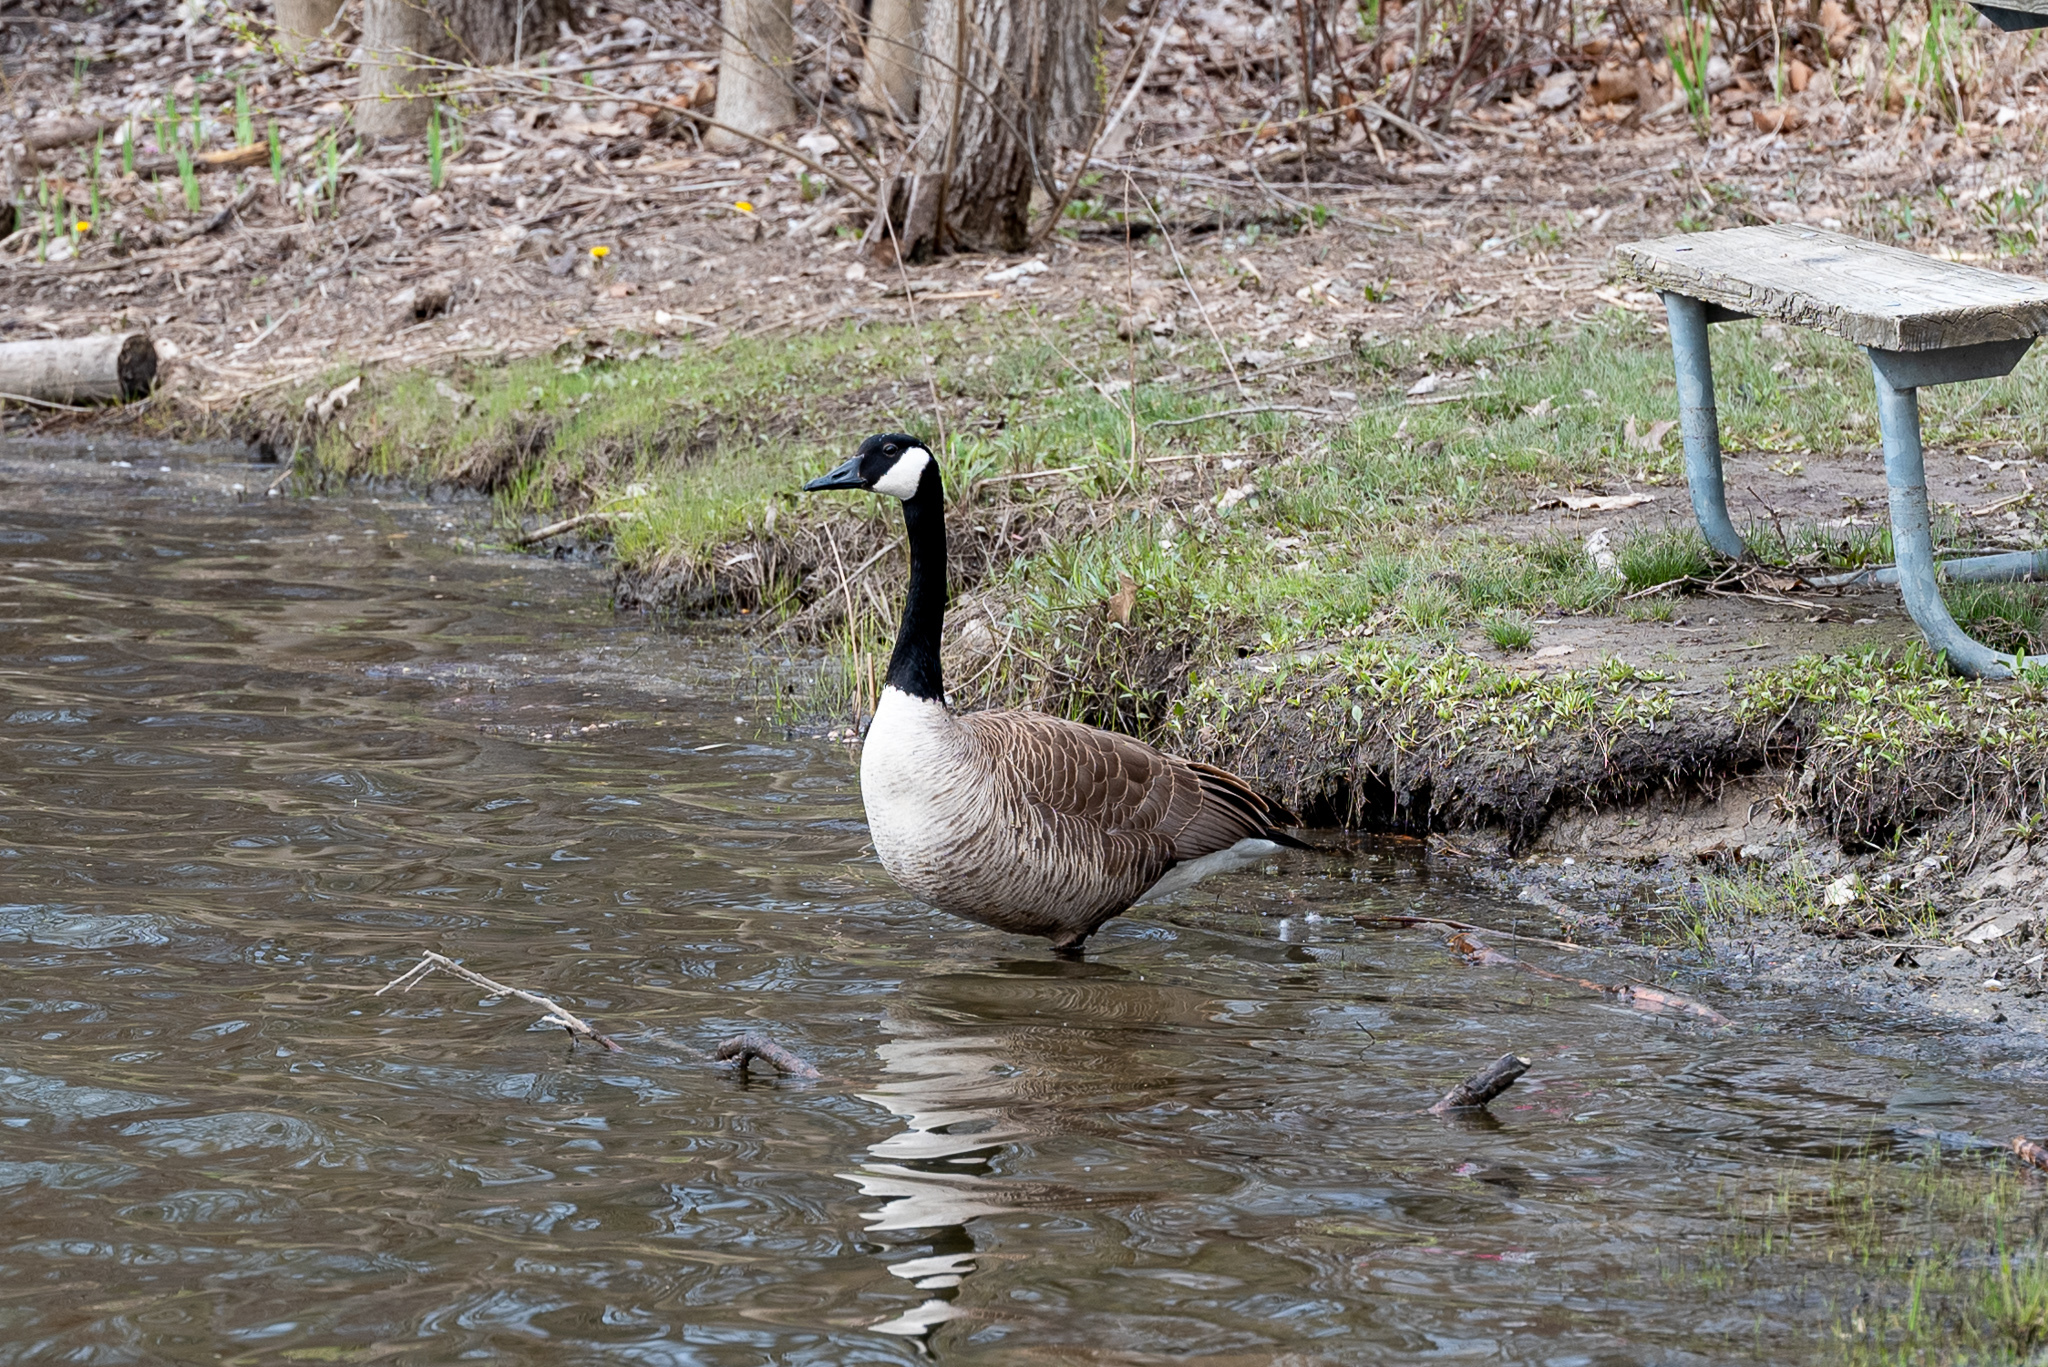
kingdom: Animalia
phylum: Chordata
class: Aves
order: Anseriformes
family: Anatidae
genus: Branta
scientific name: Branta canadensis
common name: Canada goose
